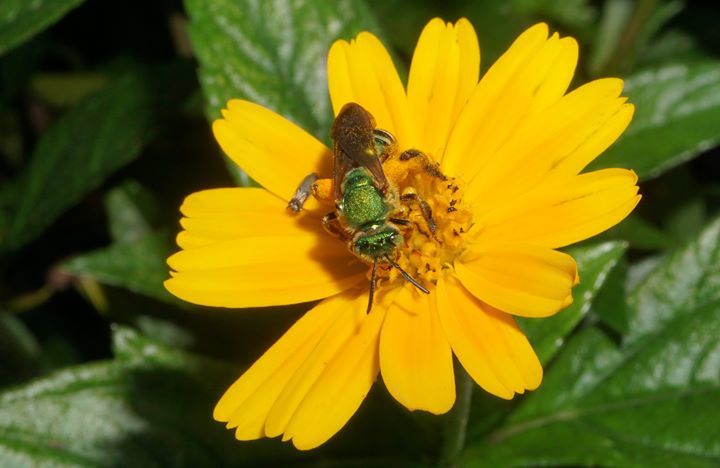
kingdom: Animalia
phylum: Arthropoda
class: Insecta
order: Hymenoptera
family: Halictidae
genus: Agapostemon
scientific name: Agapostemon splendens
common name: Brown-winged striped sweat bee
